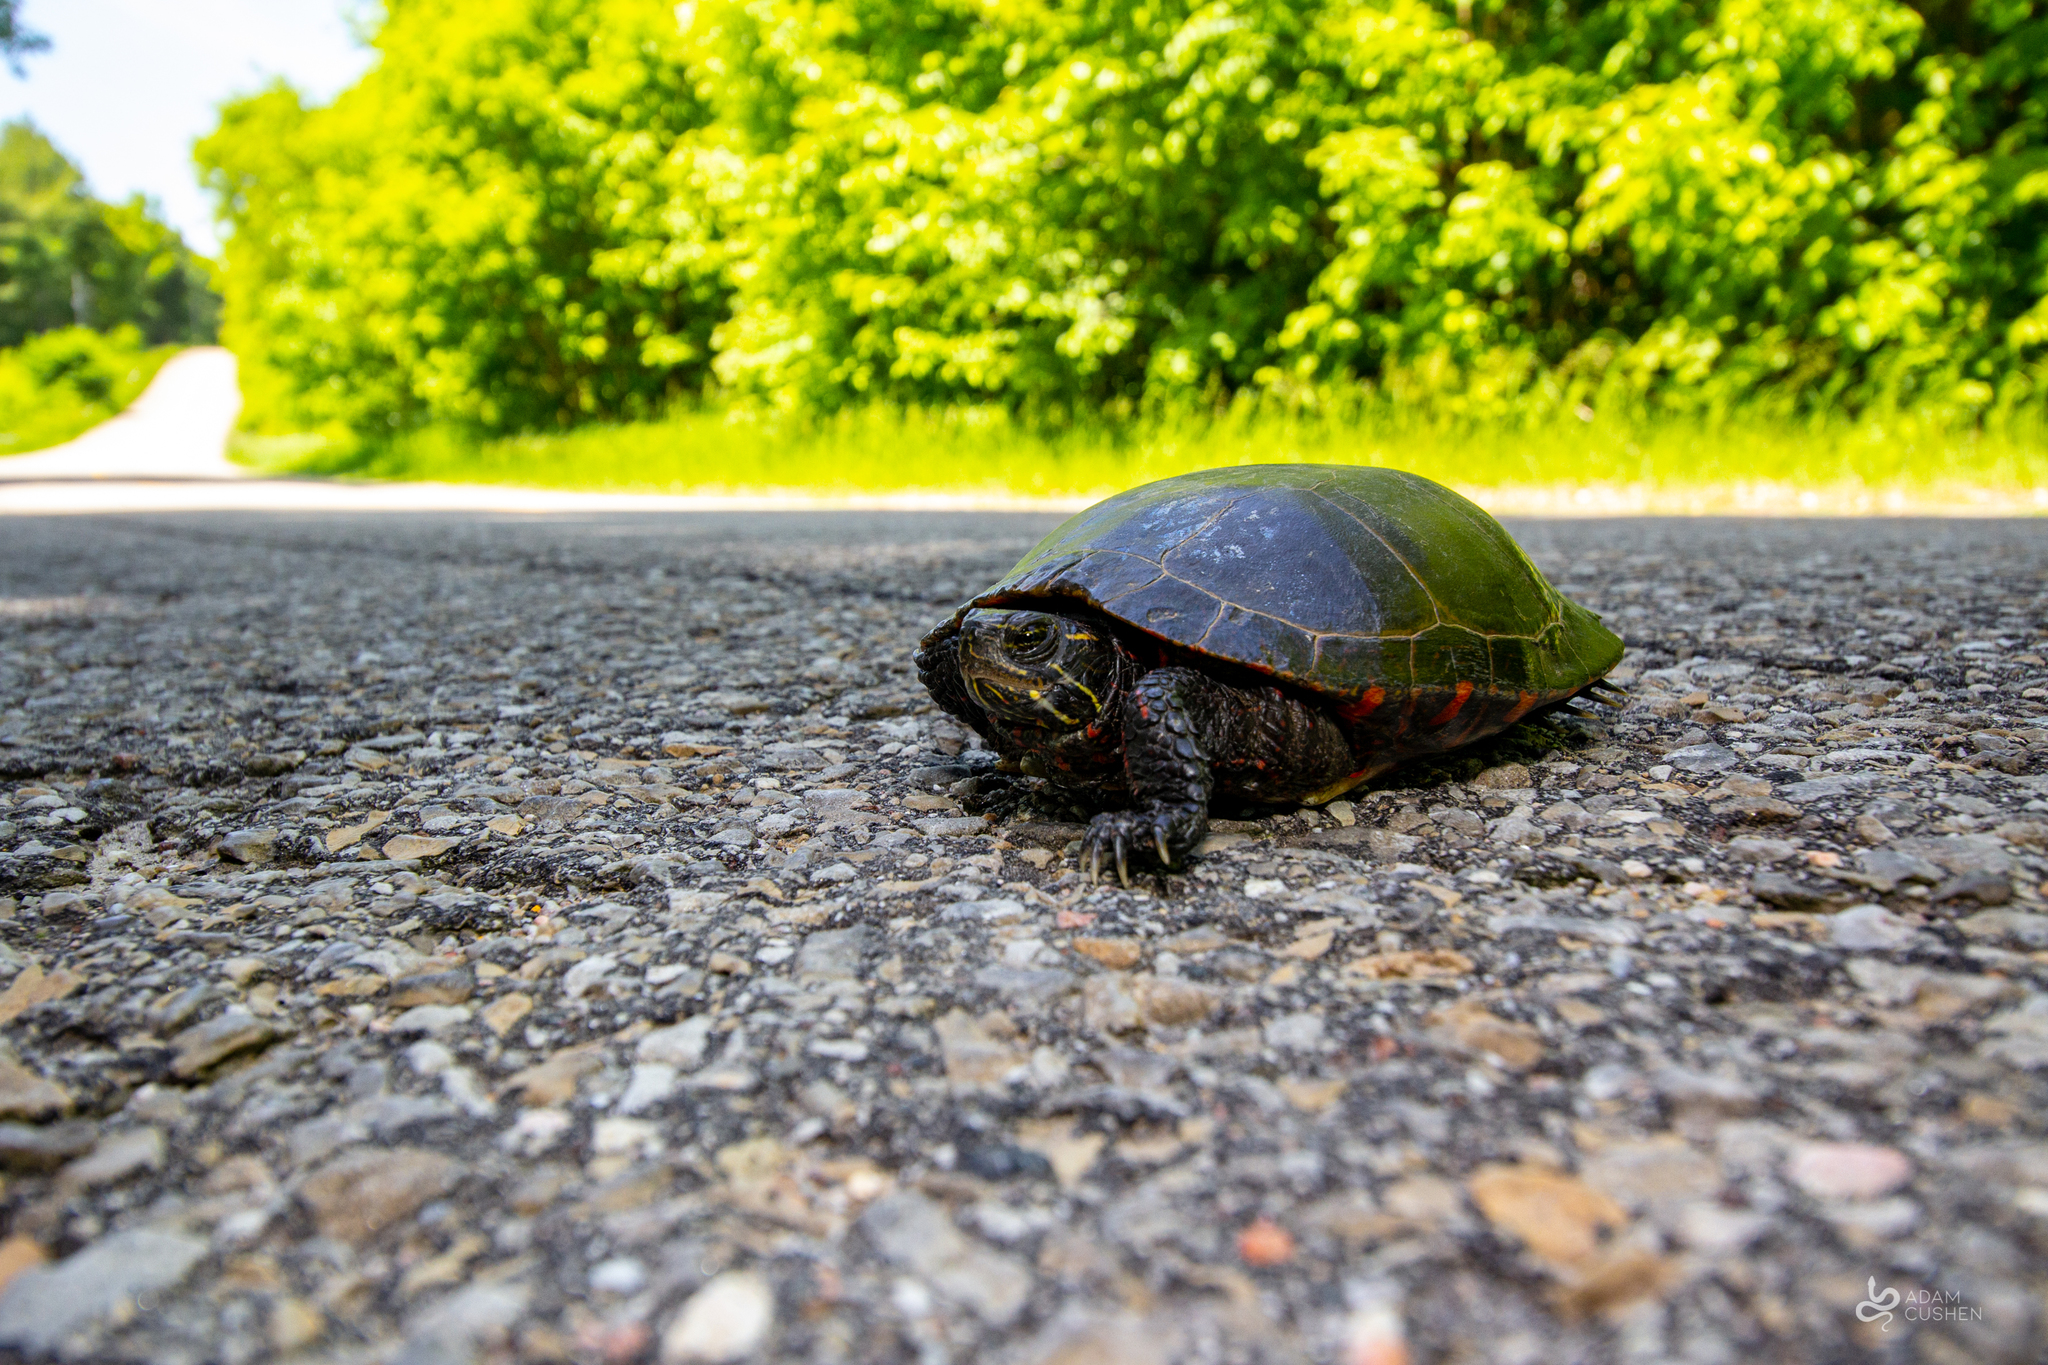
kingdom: Animalia
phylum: Chordata
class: Testudines
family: Emydidae
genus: Chrysemys
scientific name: Chrysemys picta
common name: Painted turtle
